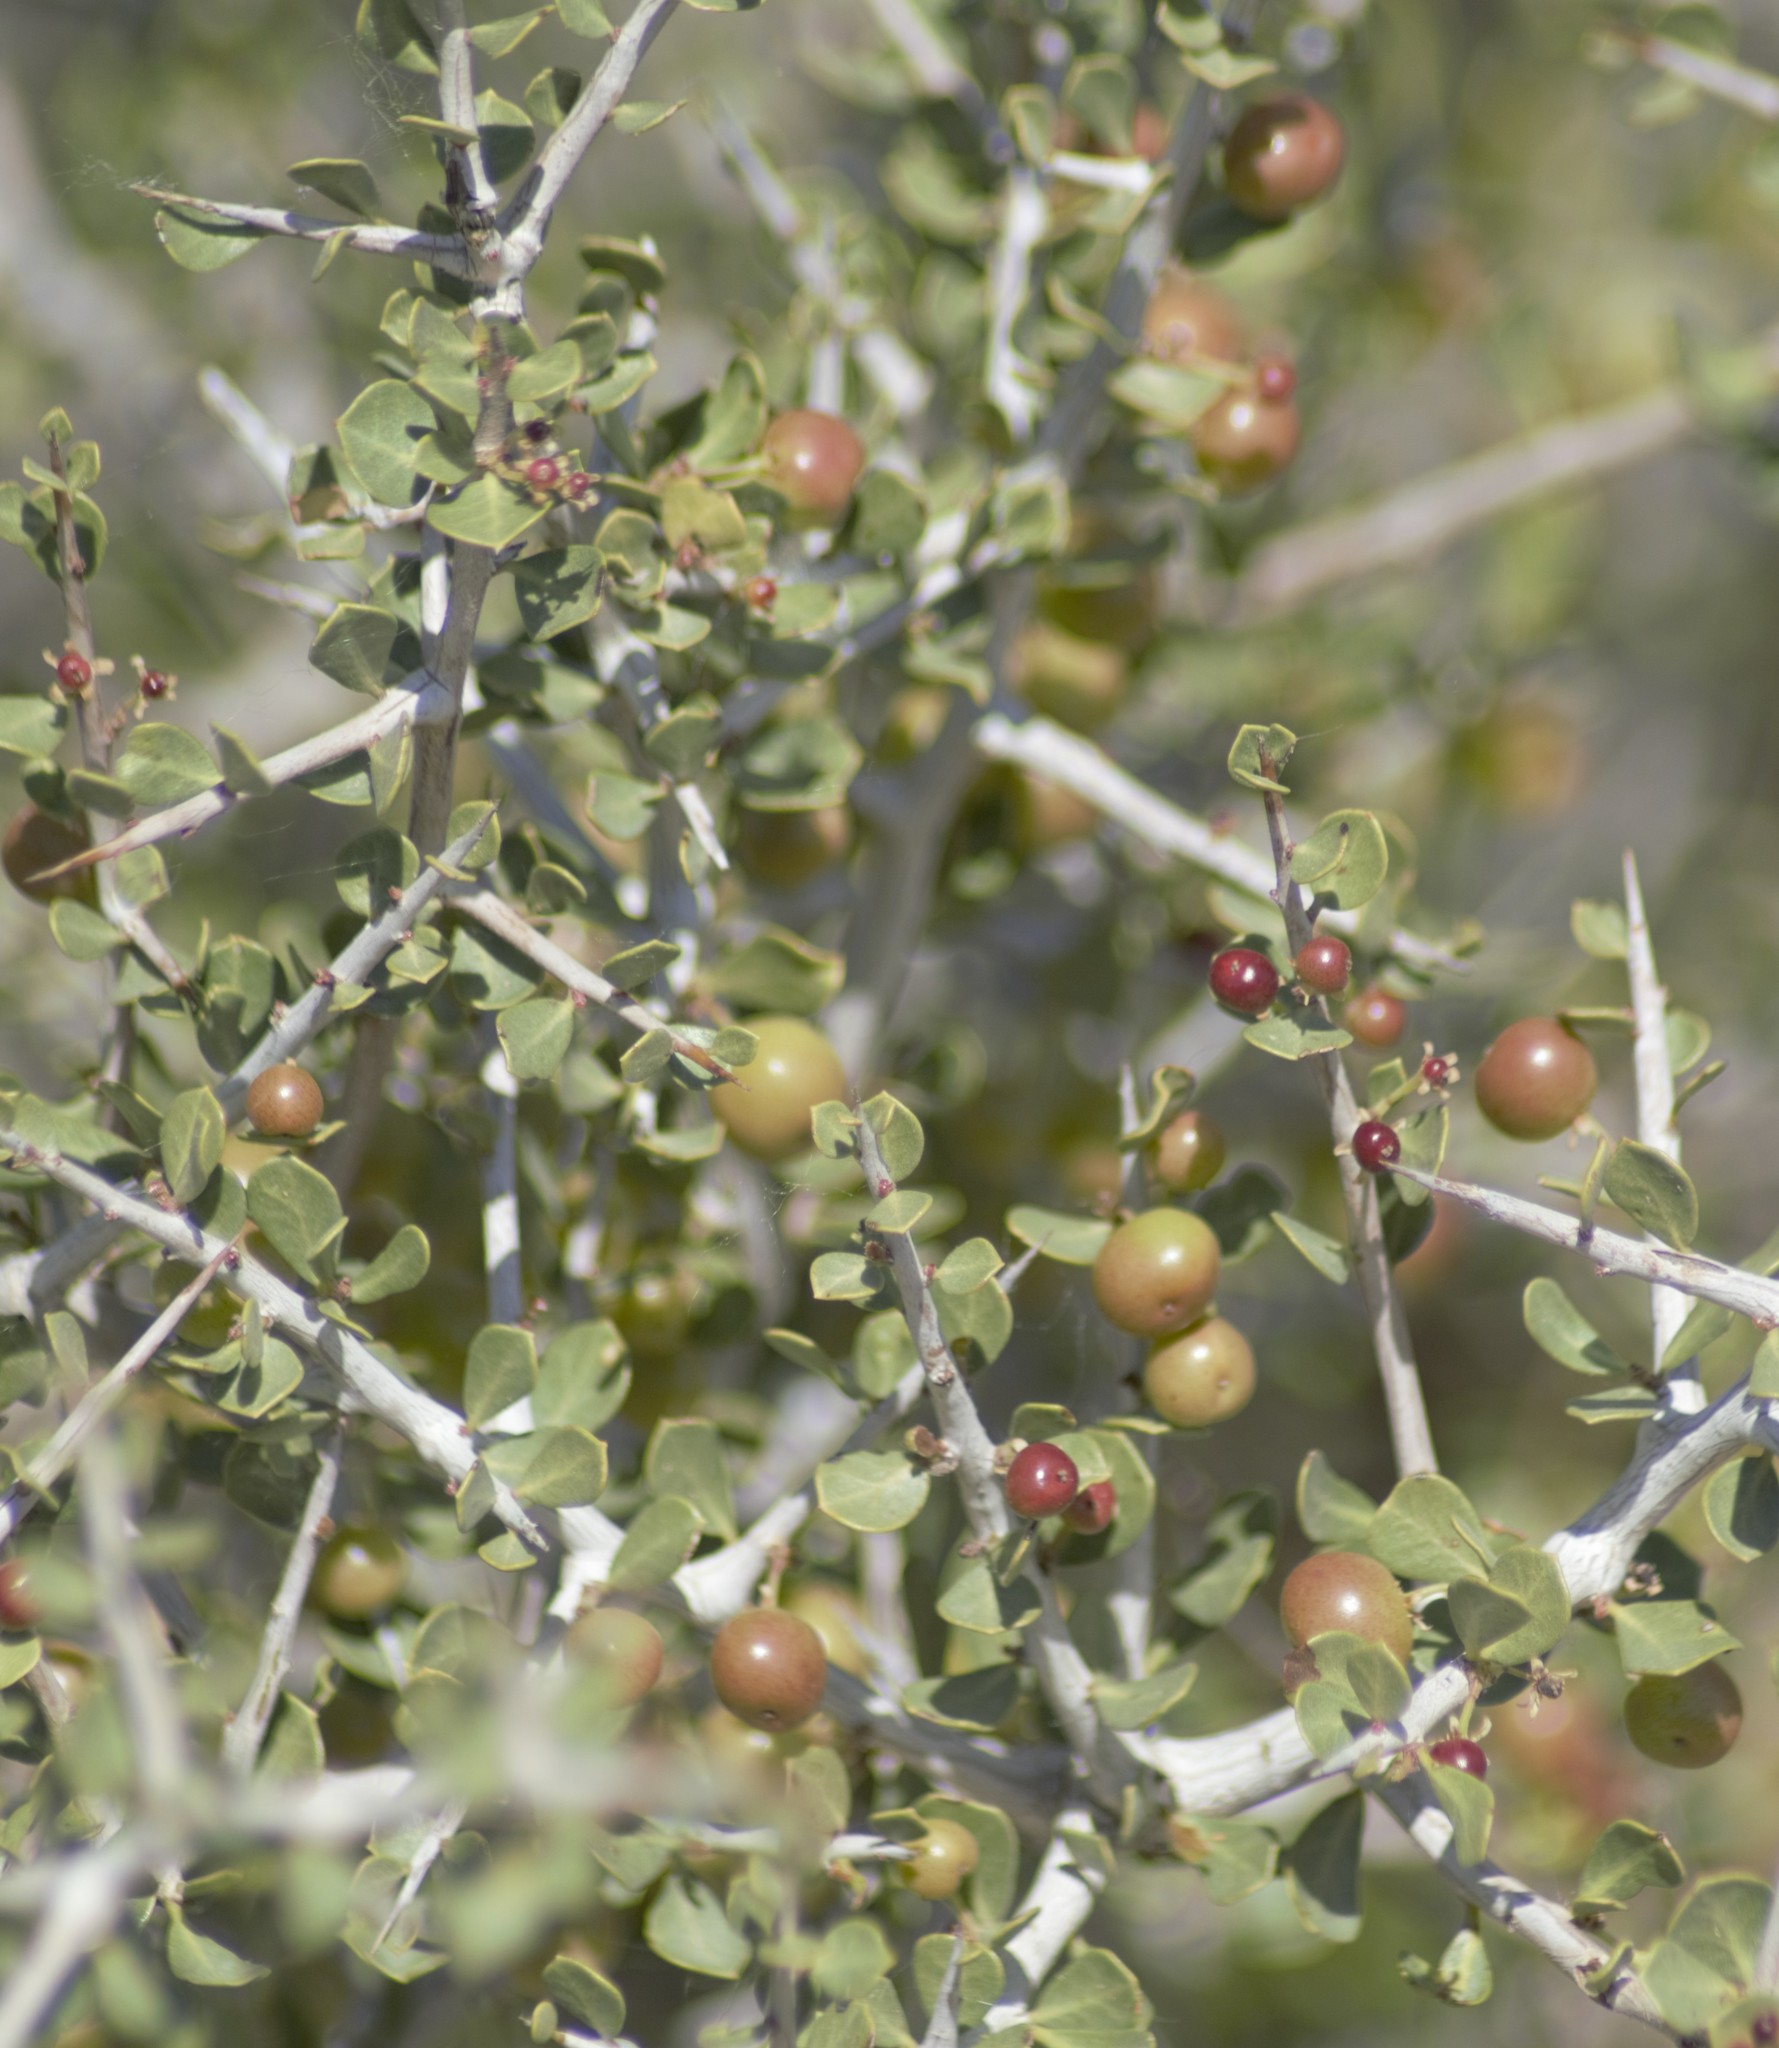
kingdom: Plantae
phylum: Tracheophyta
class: Magnoliopsida
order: Sapindales
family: Anacardiaceae
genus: Schinus
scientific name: Schinus johnstonii
